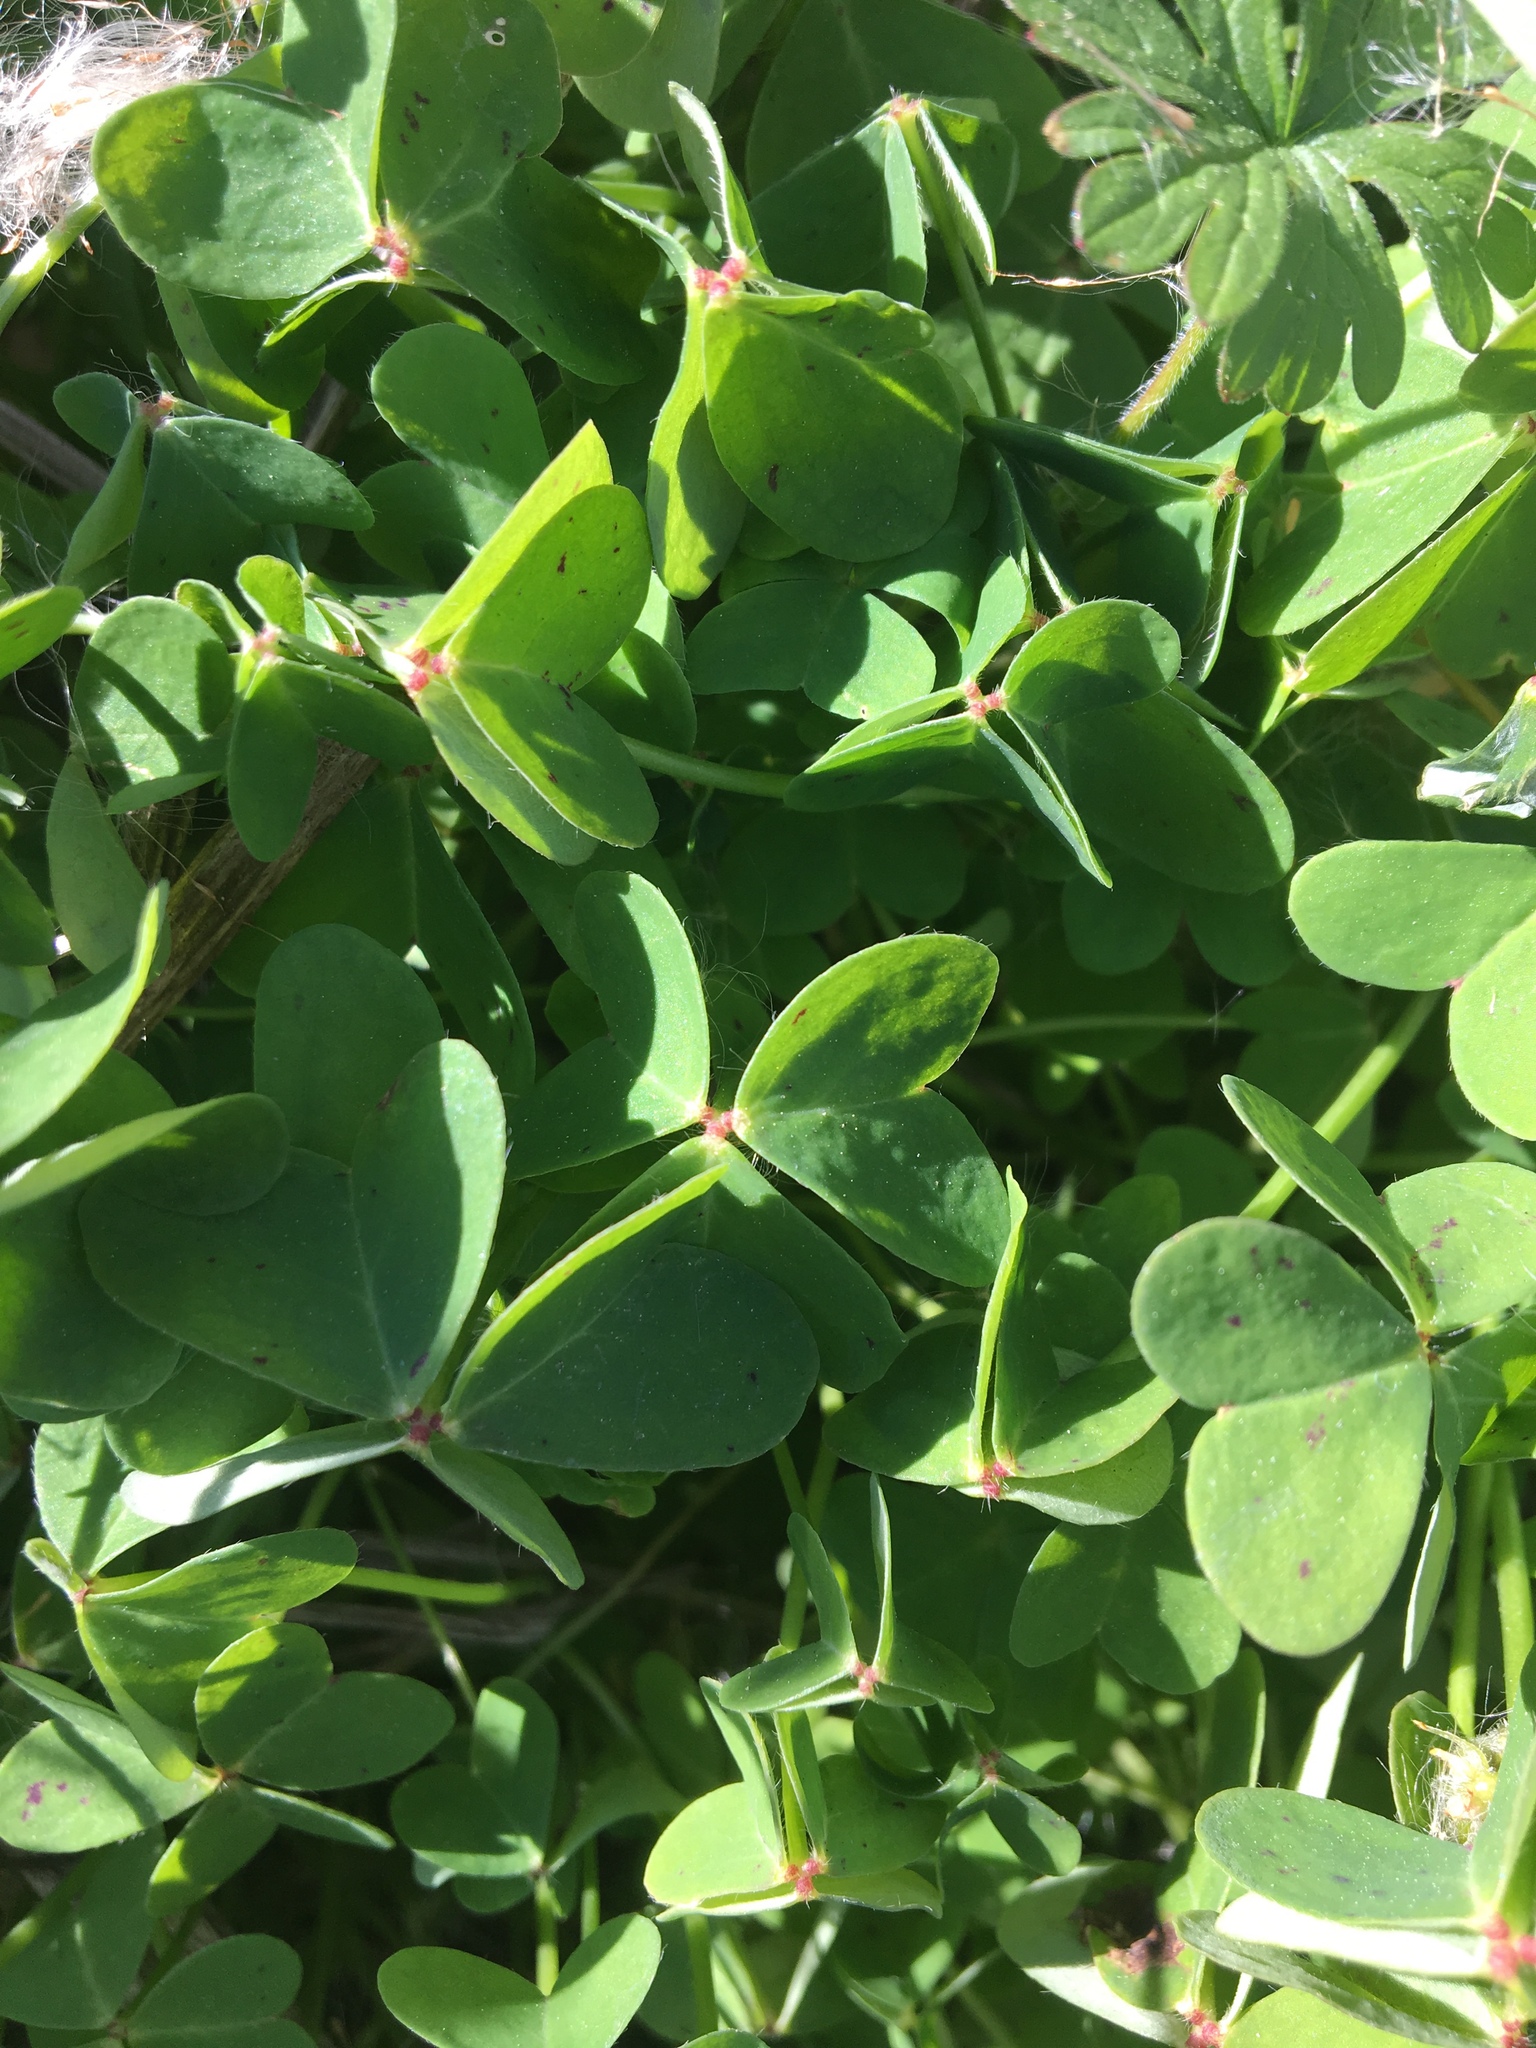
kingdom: Plantae
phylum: Tracheophyta
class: Magnoliopsida
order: Oxalidales
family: Oxalidaceae
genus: Oxalis
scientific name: Oxalis pes-caprae
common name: Bermuda-buttercup
